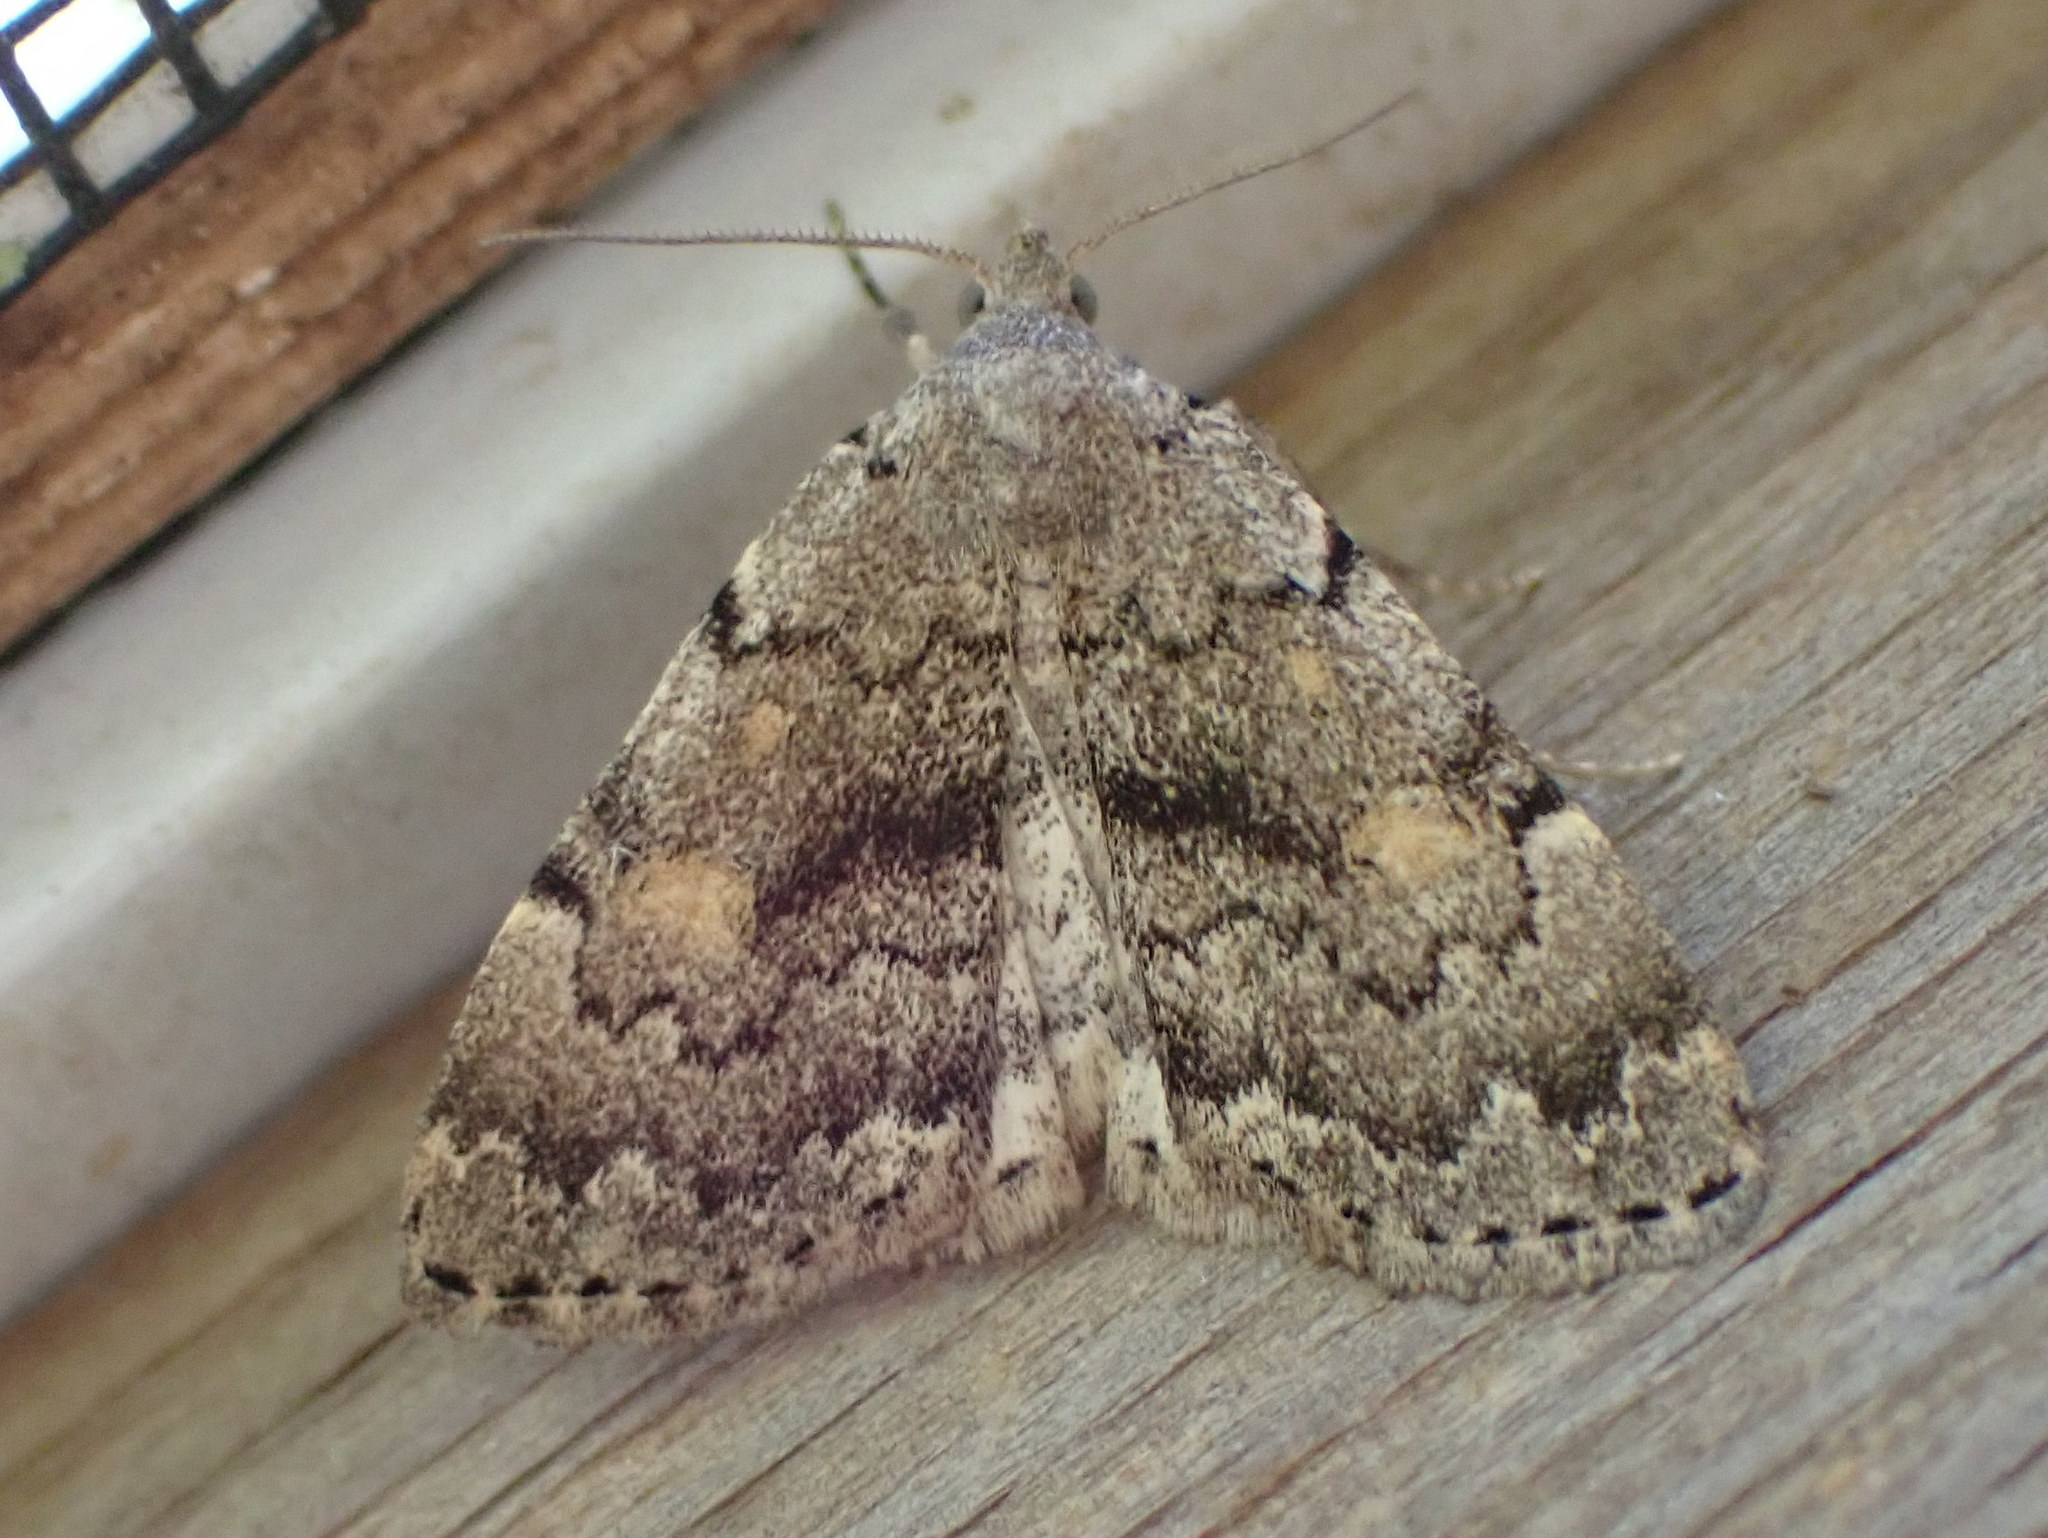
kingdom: Animalia
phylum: Arthropoda
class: Insecta
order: Lepidoptera
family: Erebidae
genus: Idia
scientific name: Idia aemula
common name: Common idia moth
